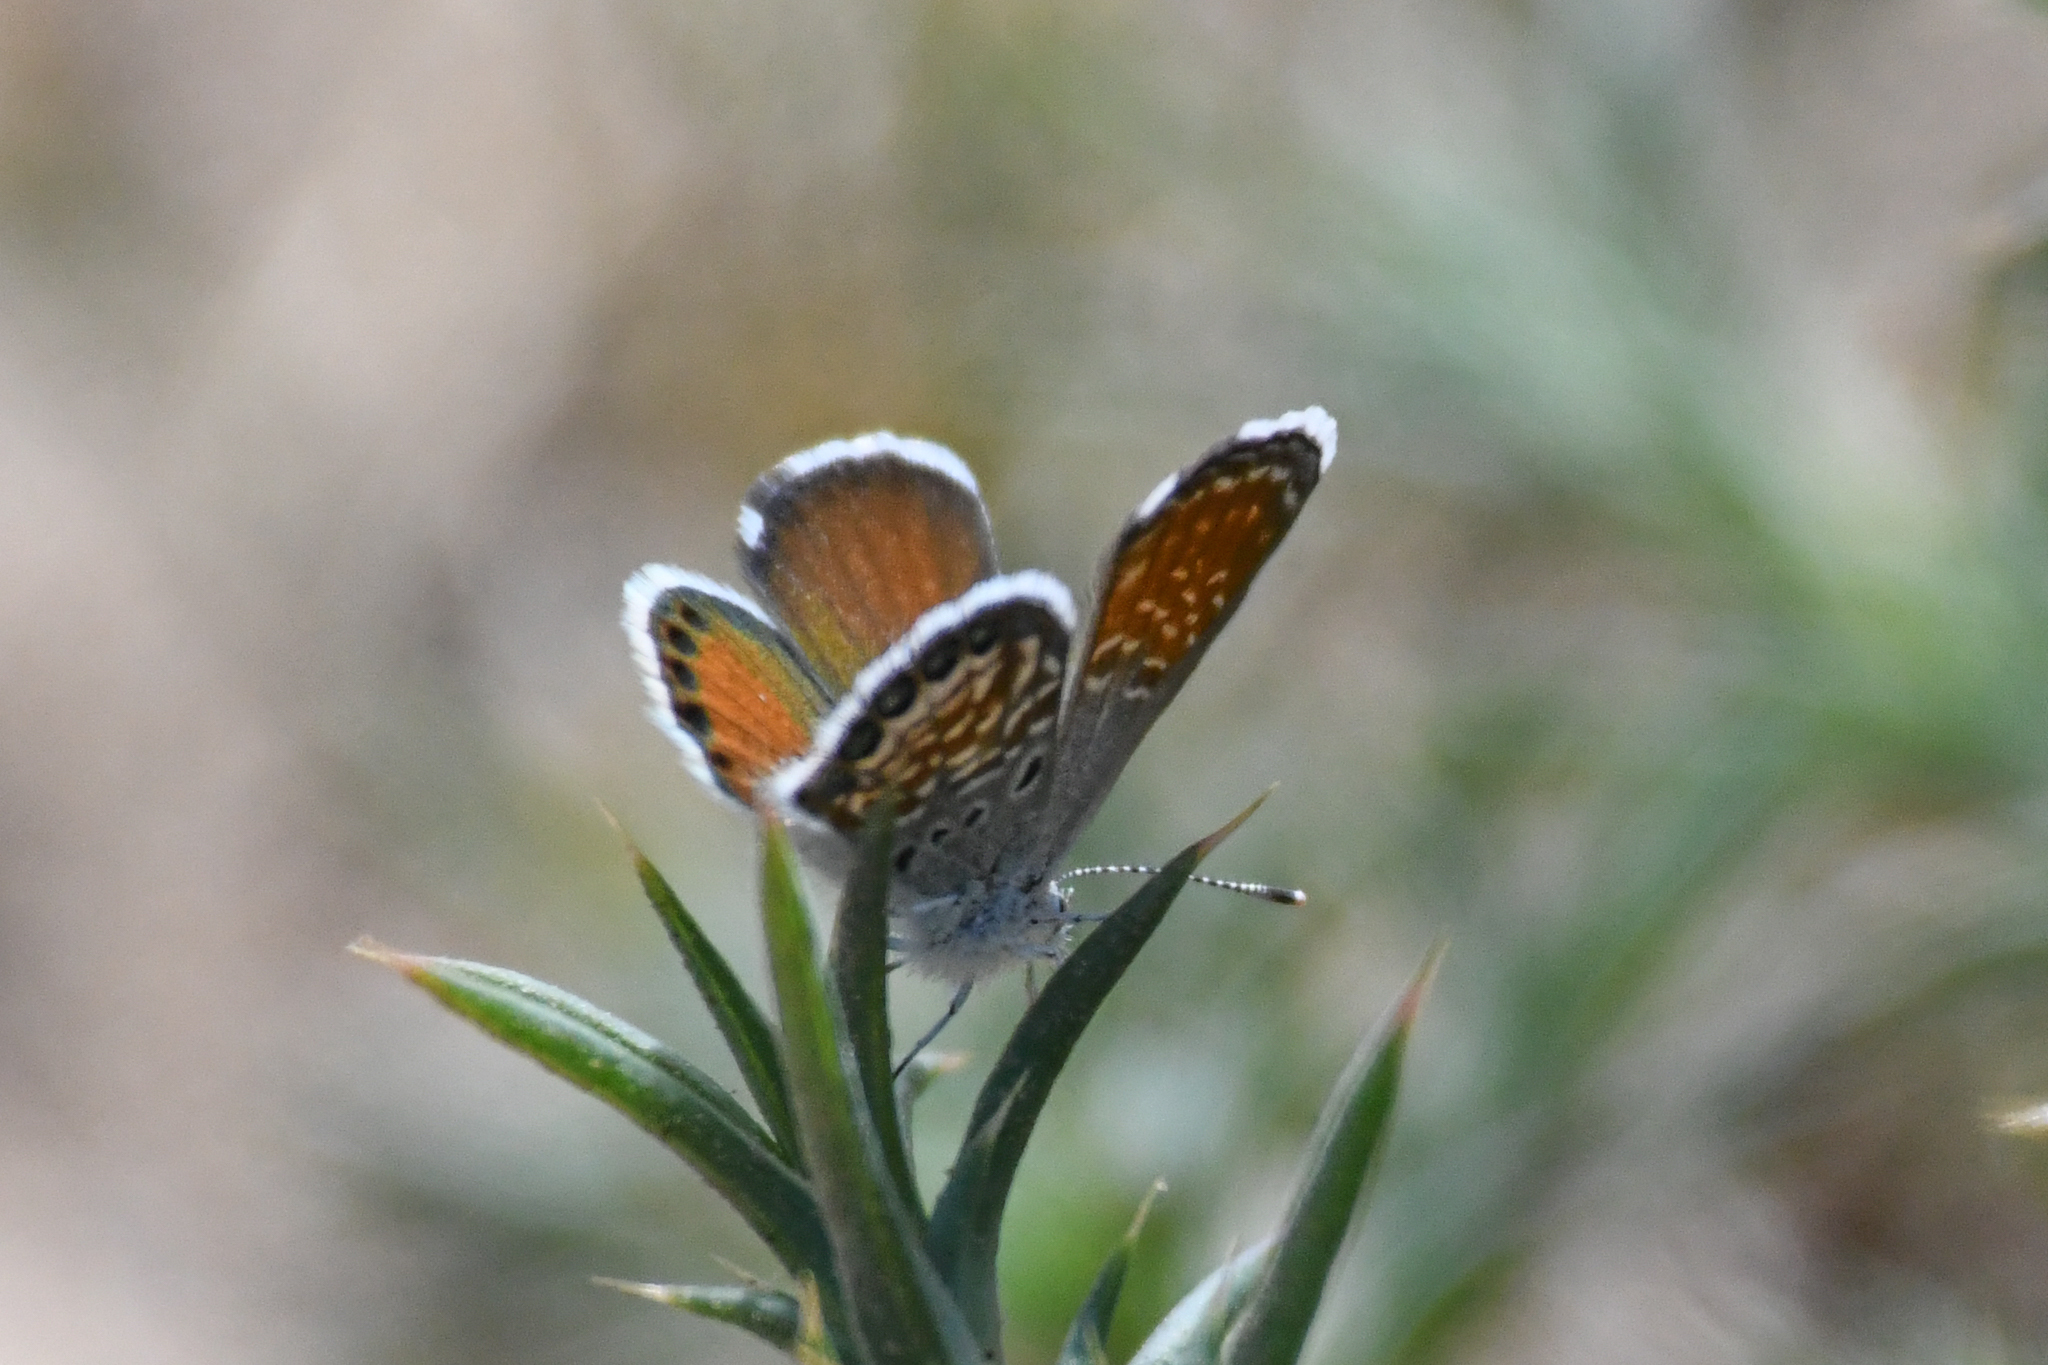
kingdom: Animalia
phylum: Arthropoda
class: Insecta
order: Lepidoptera
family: Lycaenidae
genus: Brephidium
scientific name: Brephidium exilis
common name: Pygmy blue
